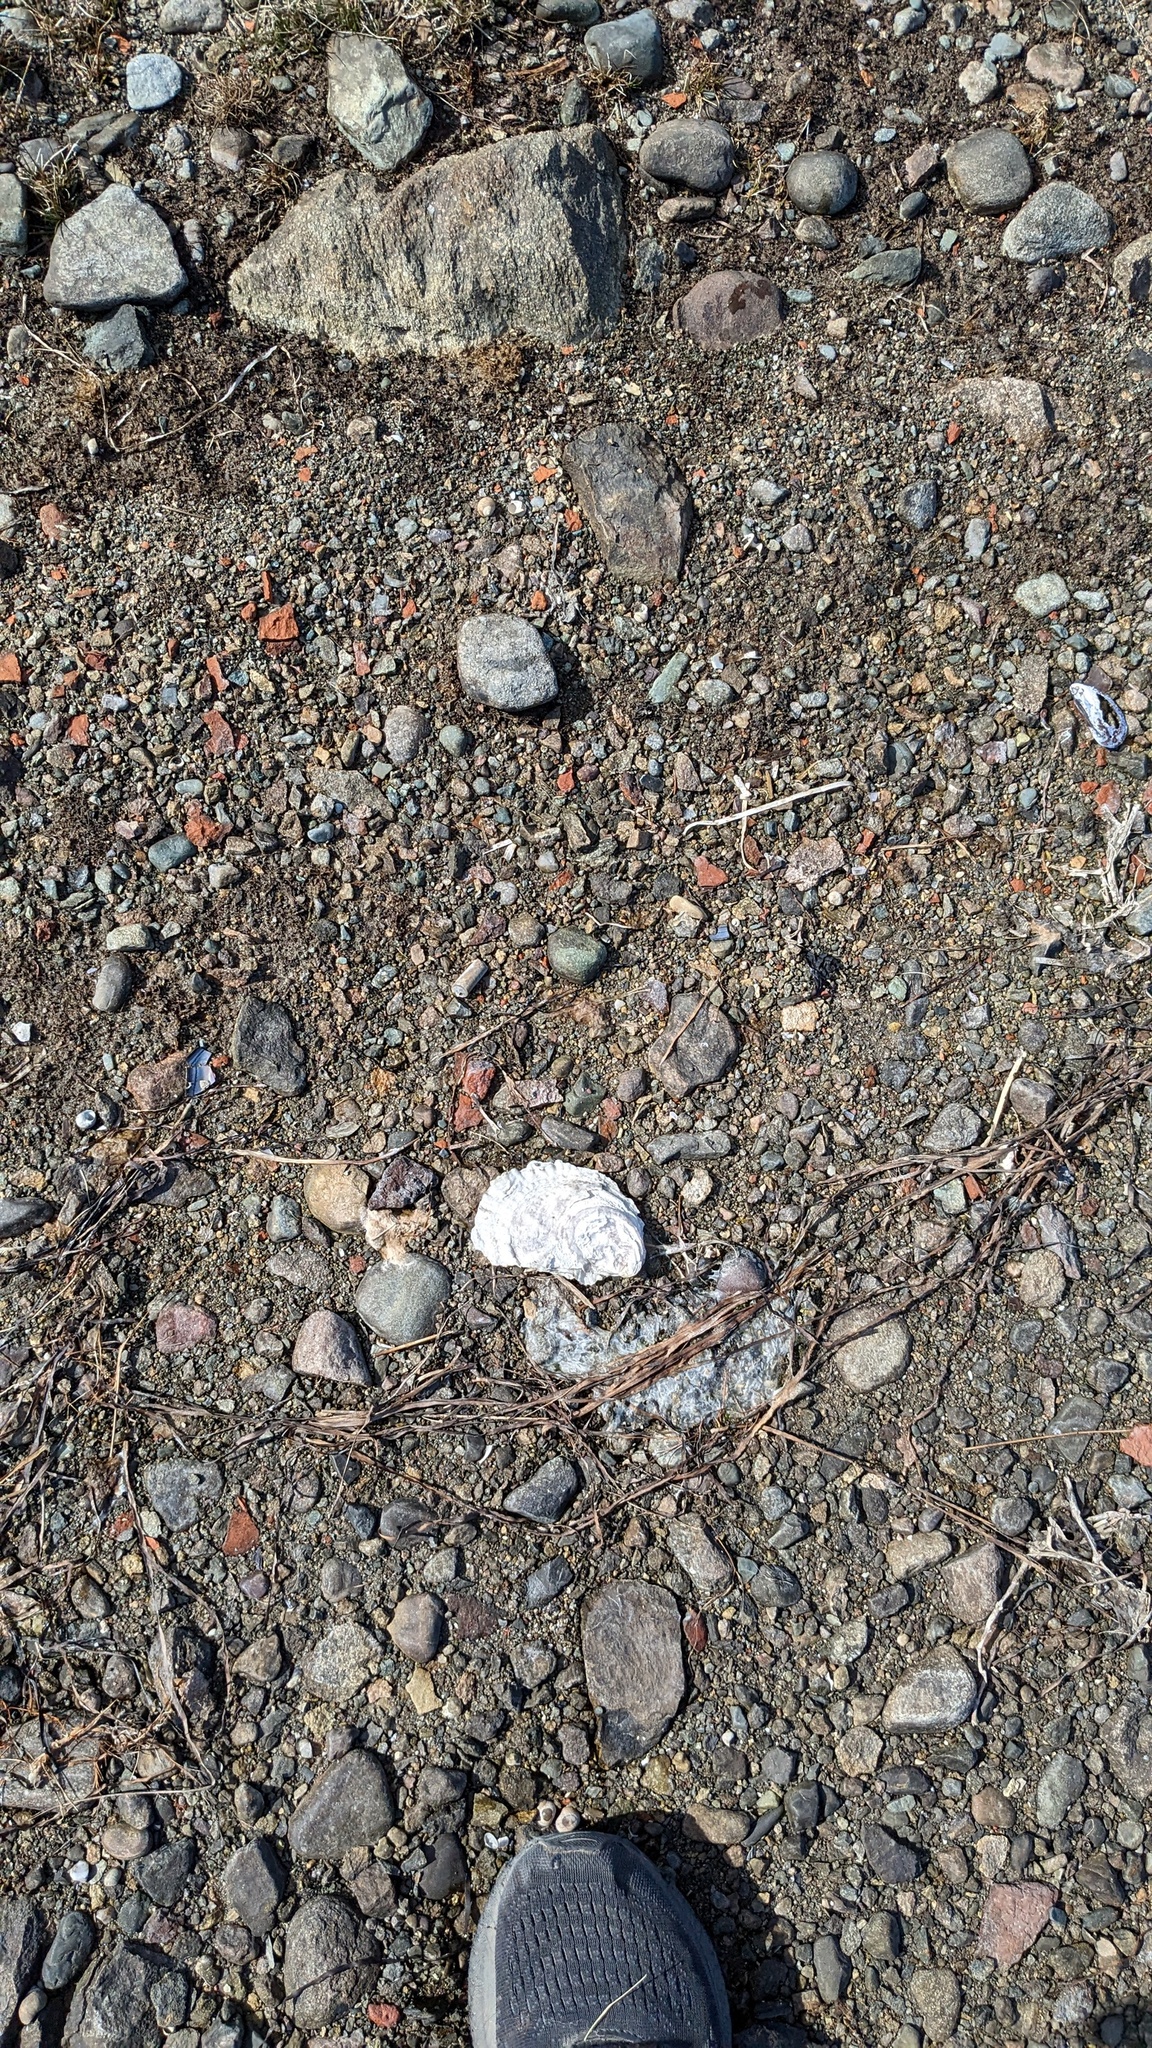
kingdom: Animalia
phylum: Mollusca
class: Bivalvia
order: Ostreida
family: Ostreidae
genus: Crassostrea
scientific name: Crassostrea virginica
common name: American oyster
